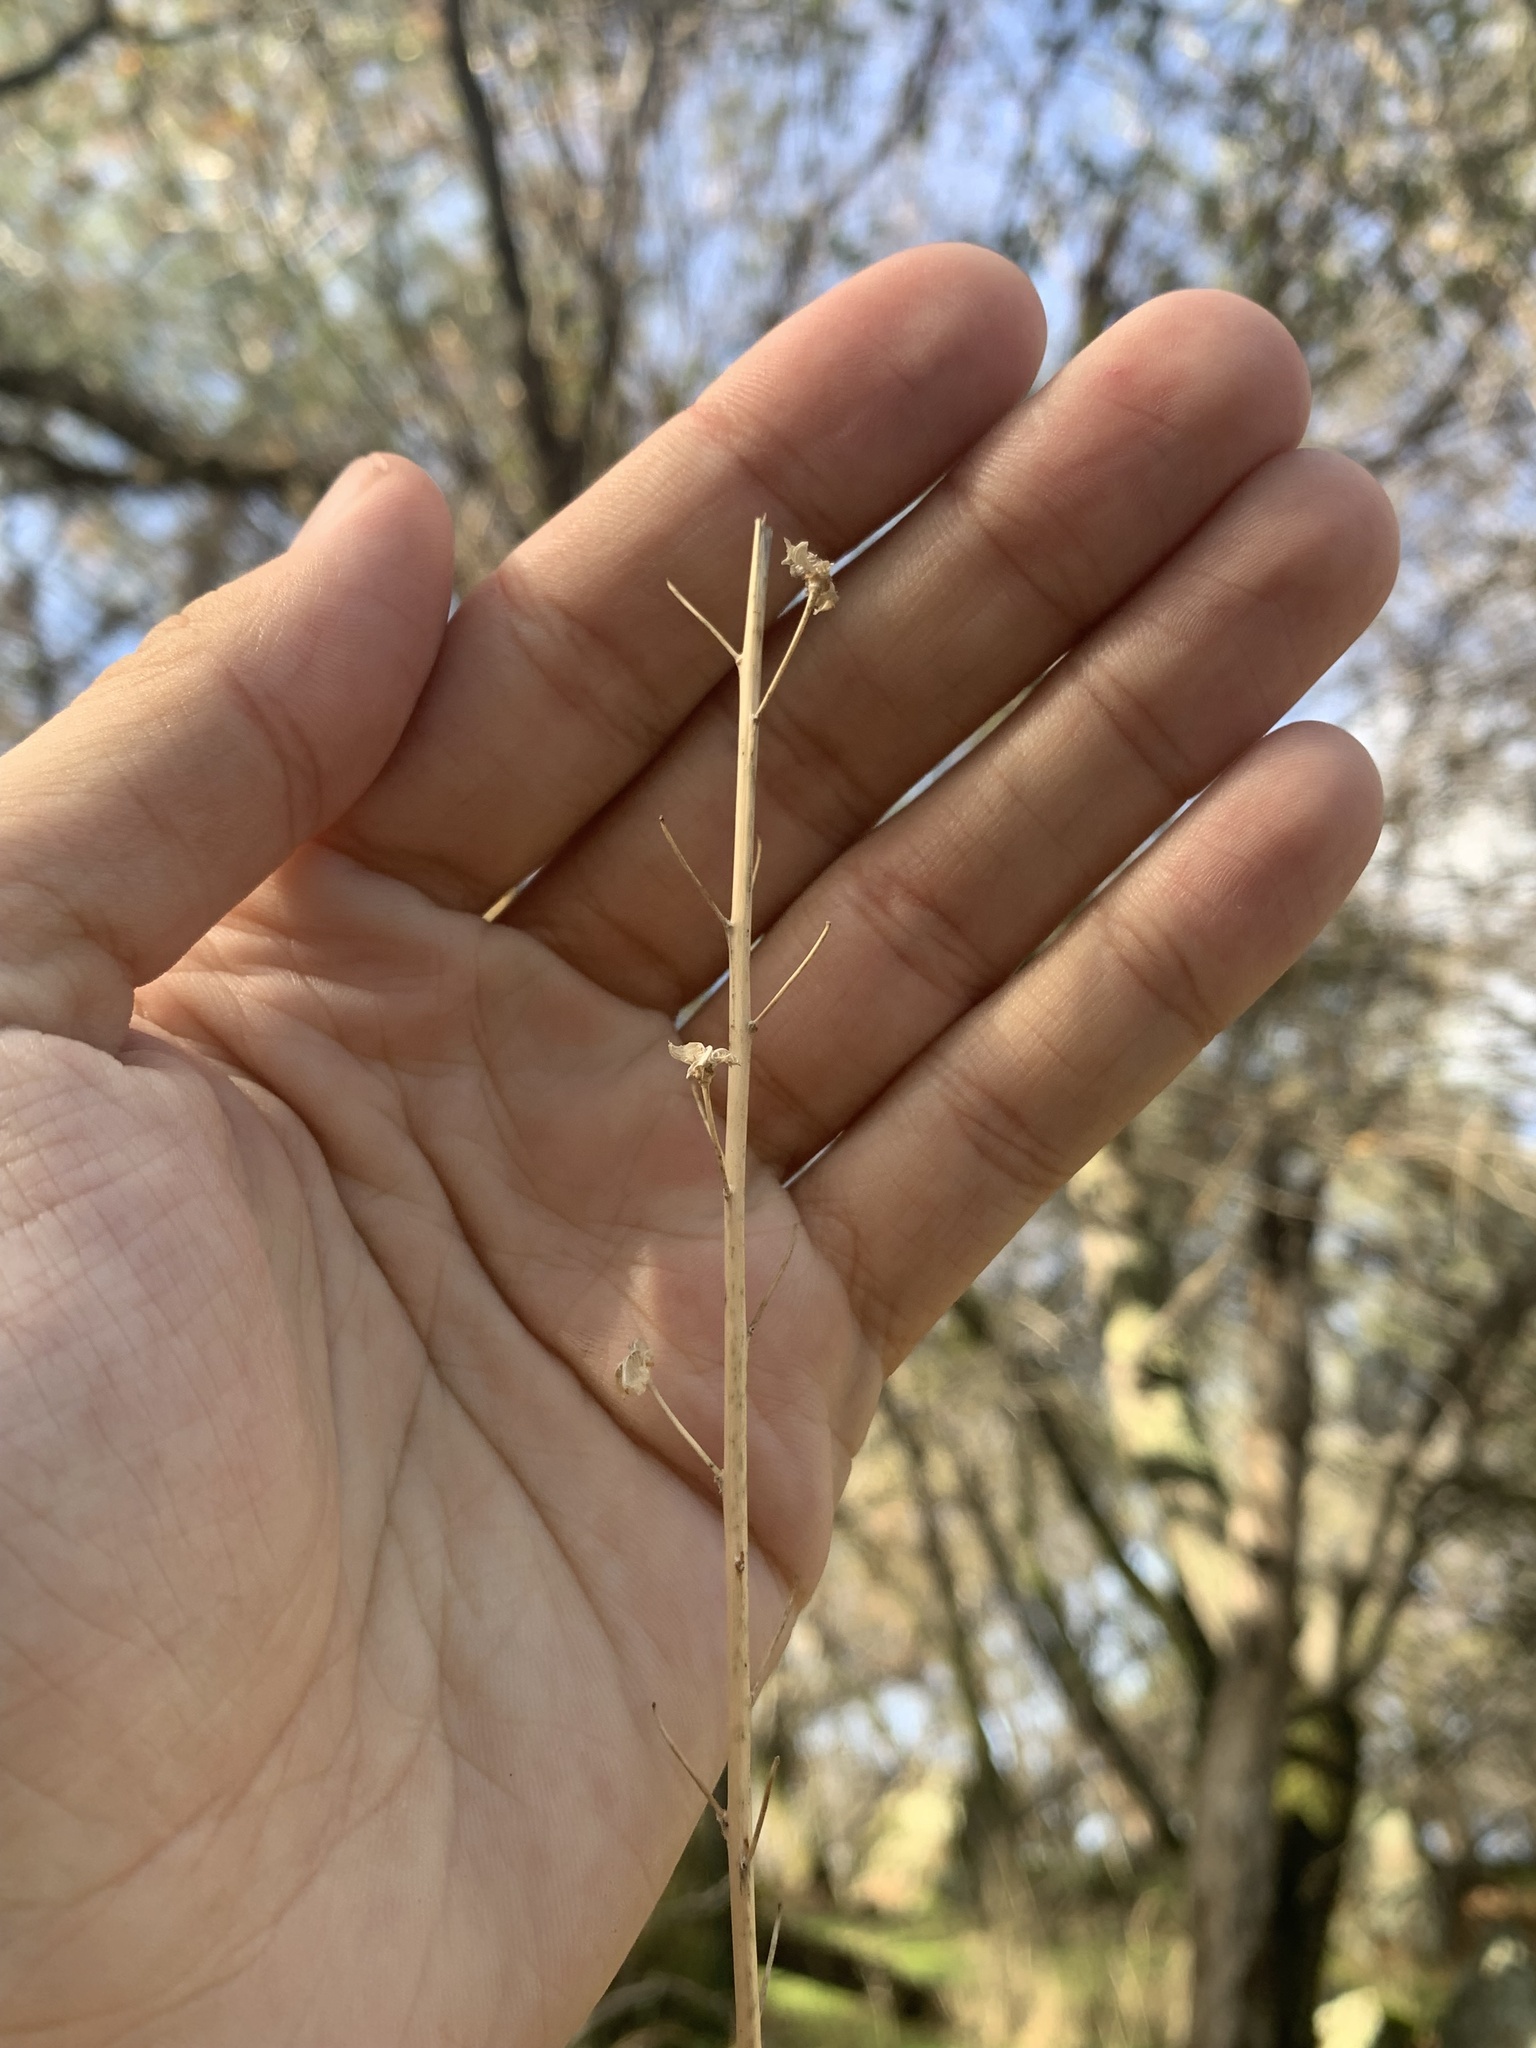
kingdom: Plantae
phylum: Tracheophyta
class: Liliopsida
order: Asparagales
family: Asparagaceae
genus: Chlorogalum
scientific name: Chlorogalum pomeridianum
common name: Amole
